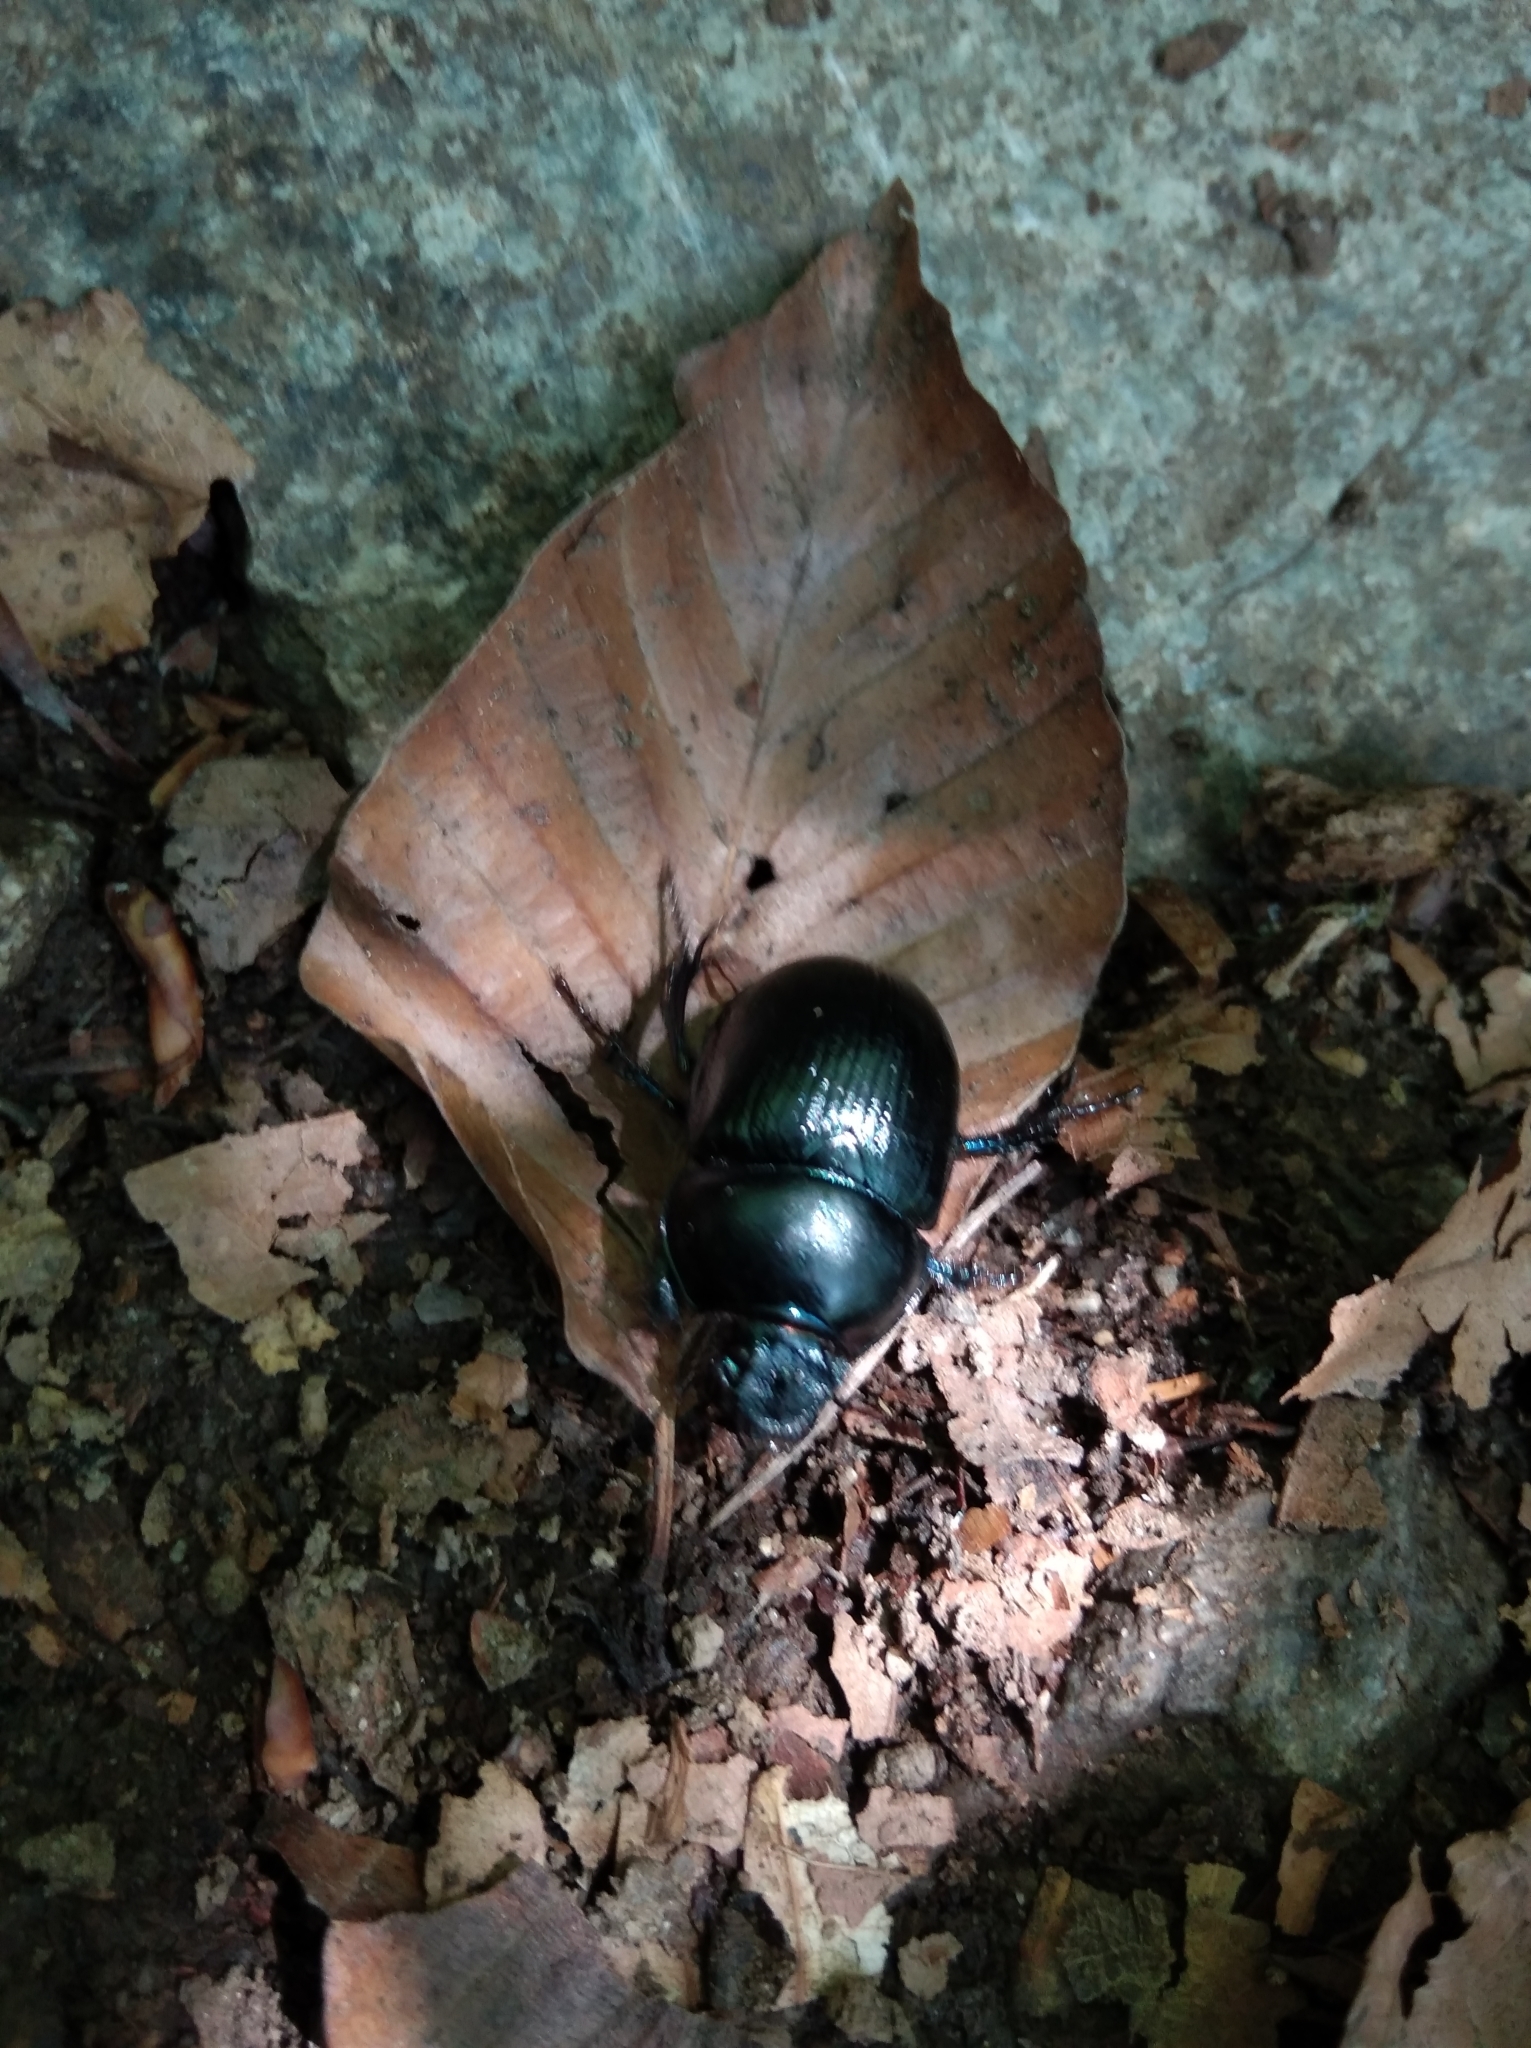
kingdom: Animalia
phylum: Arthropoda
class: Insecta
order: Coleoptera
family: Geotrupidae
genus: Anoplotrupes
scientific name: Anoplotrupes stercorosus
